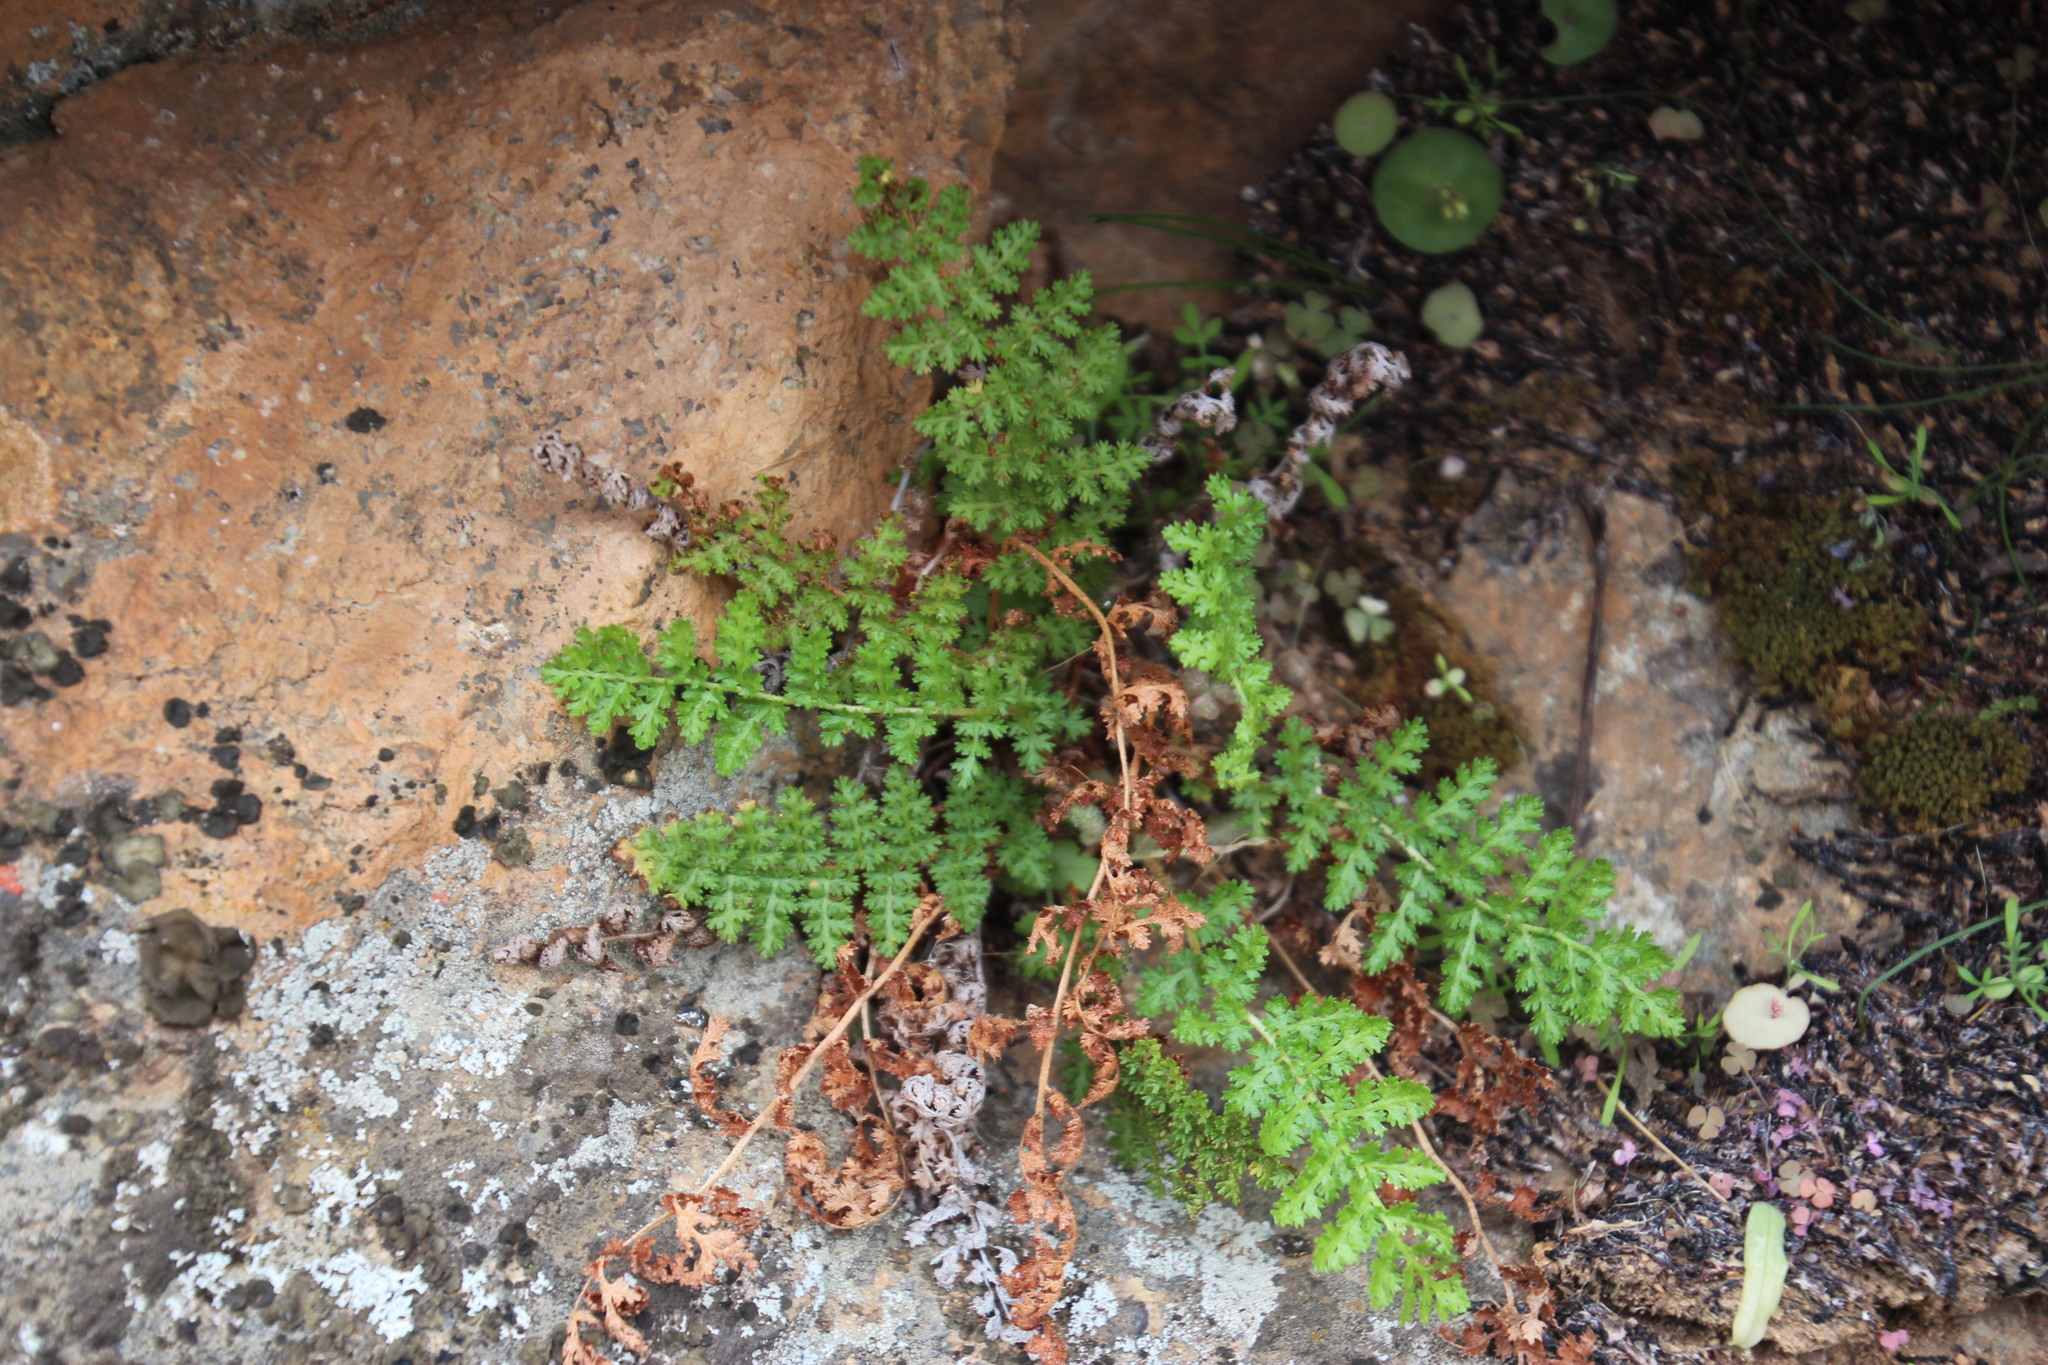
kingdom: Plantae
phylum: Tracheophyta
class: Polypodiopsida
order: Schizaeales
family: Anemiaceae
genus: Anemia
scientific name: Anemia caffrorum
